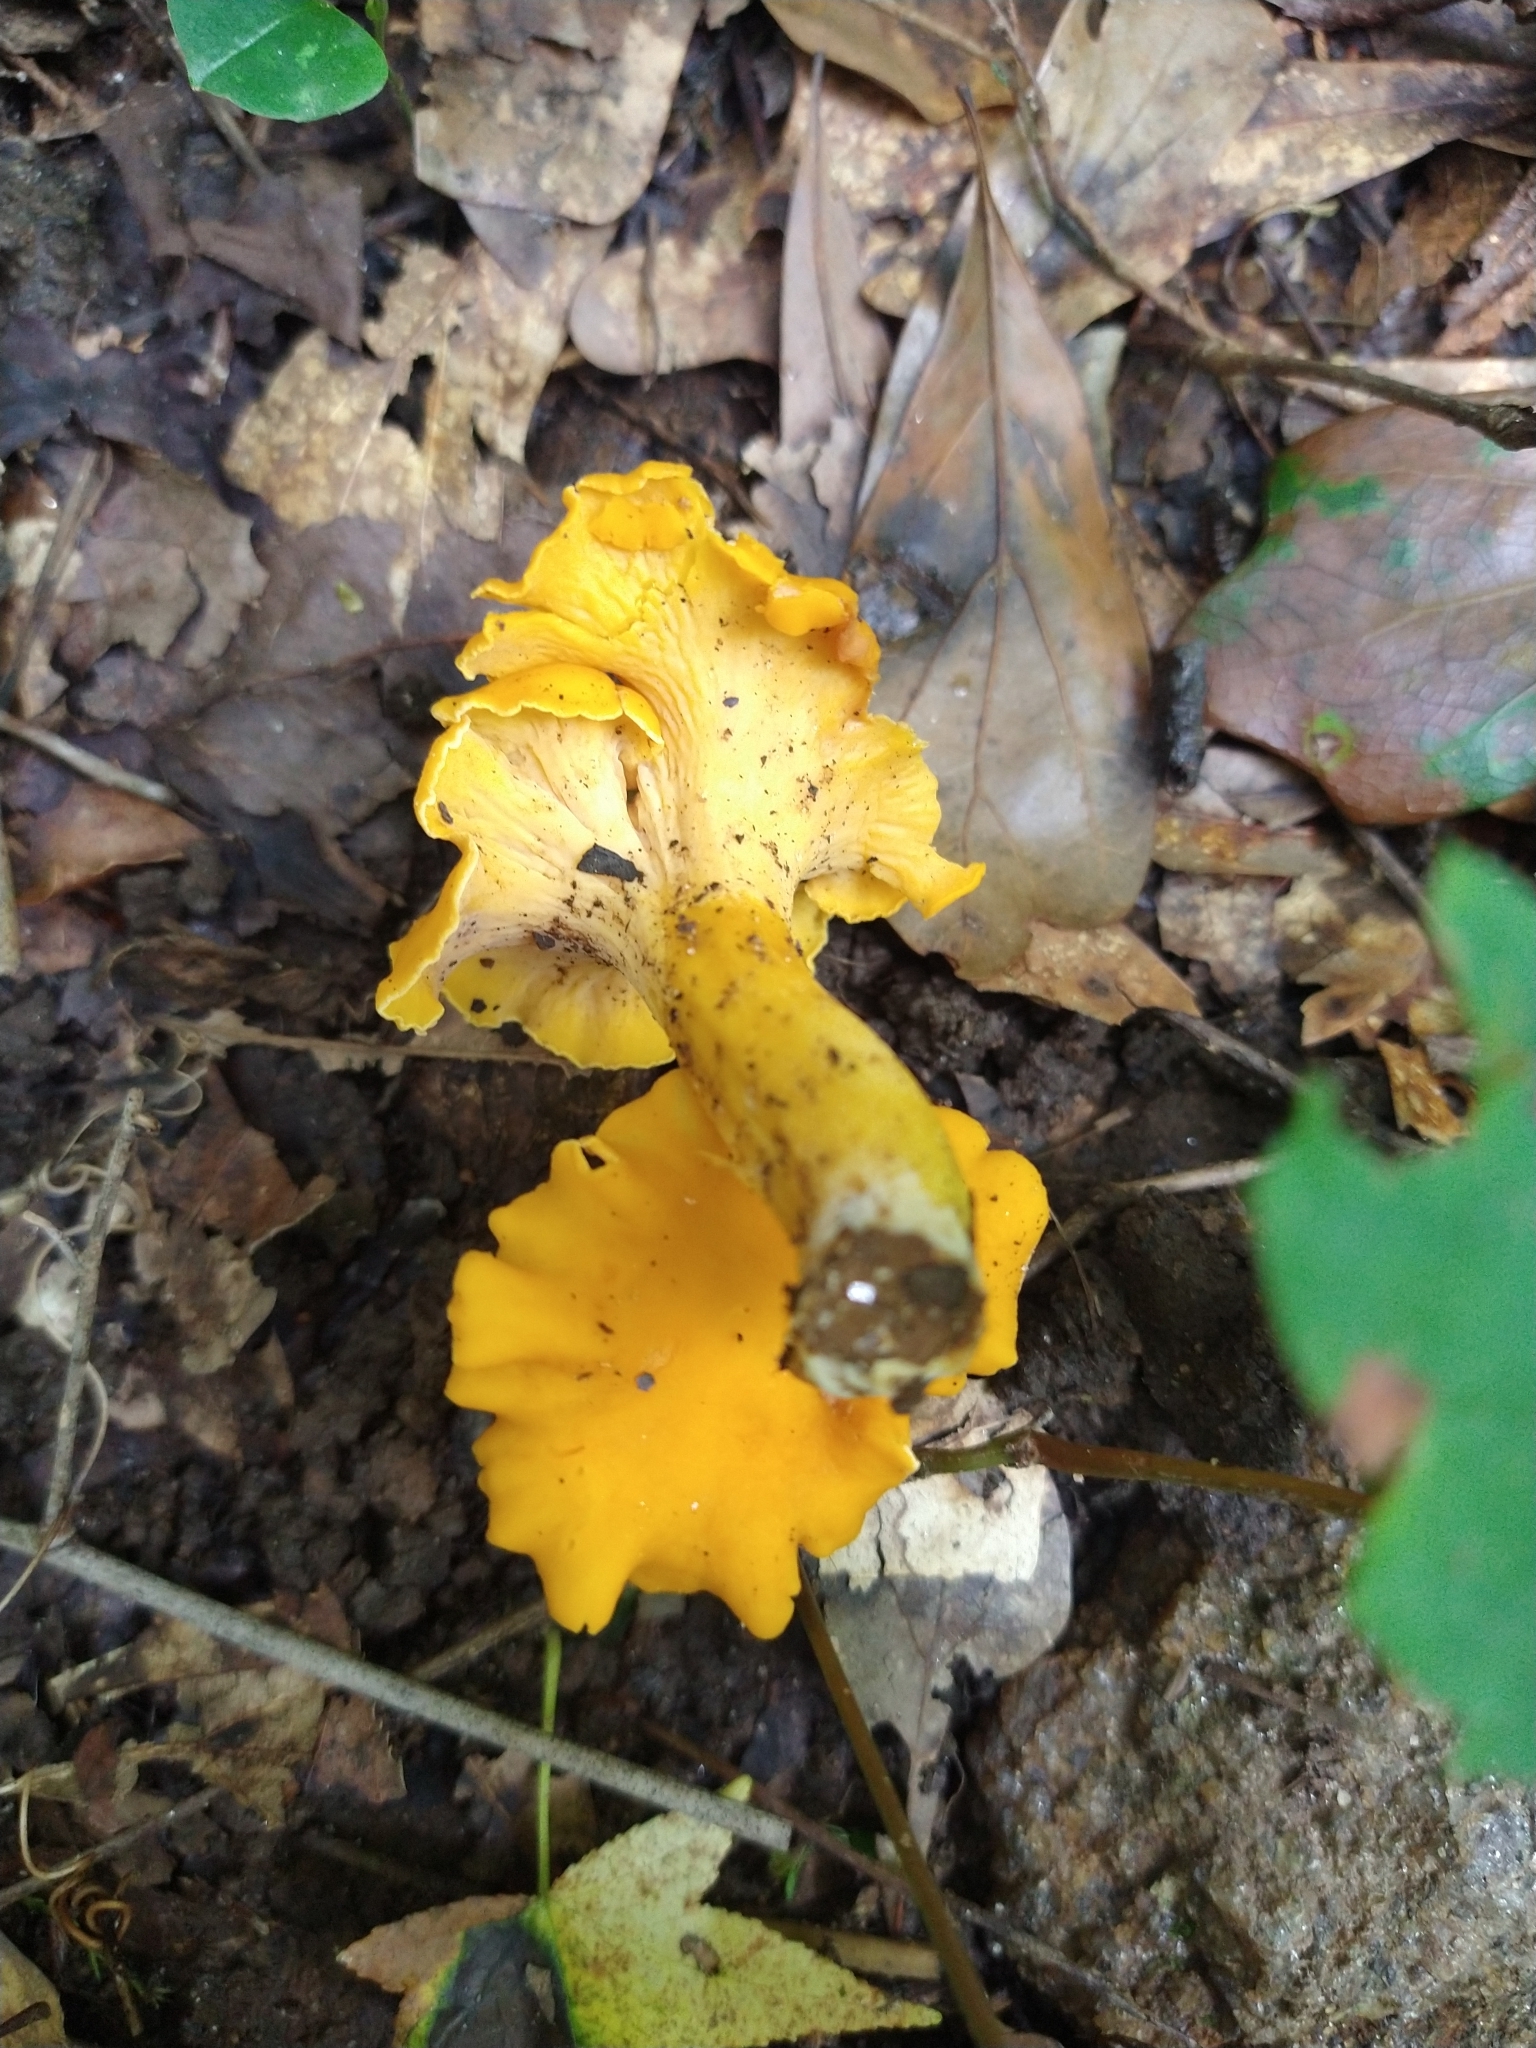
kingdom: Fungi
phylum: Basidiomycota
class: Agaricomycetes
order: Cantharellales
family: Hydnaceae
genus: Cantharellus
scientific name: Cantharellus lateritius
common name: Smooth chanterelle
